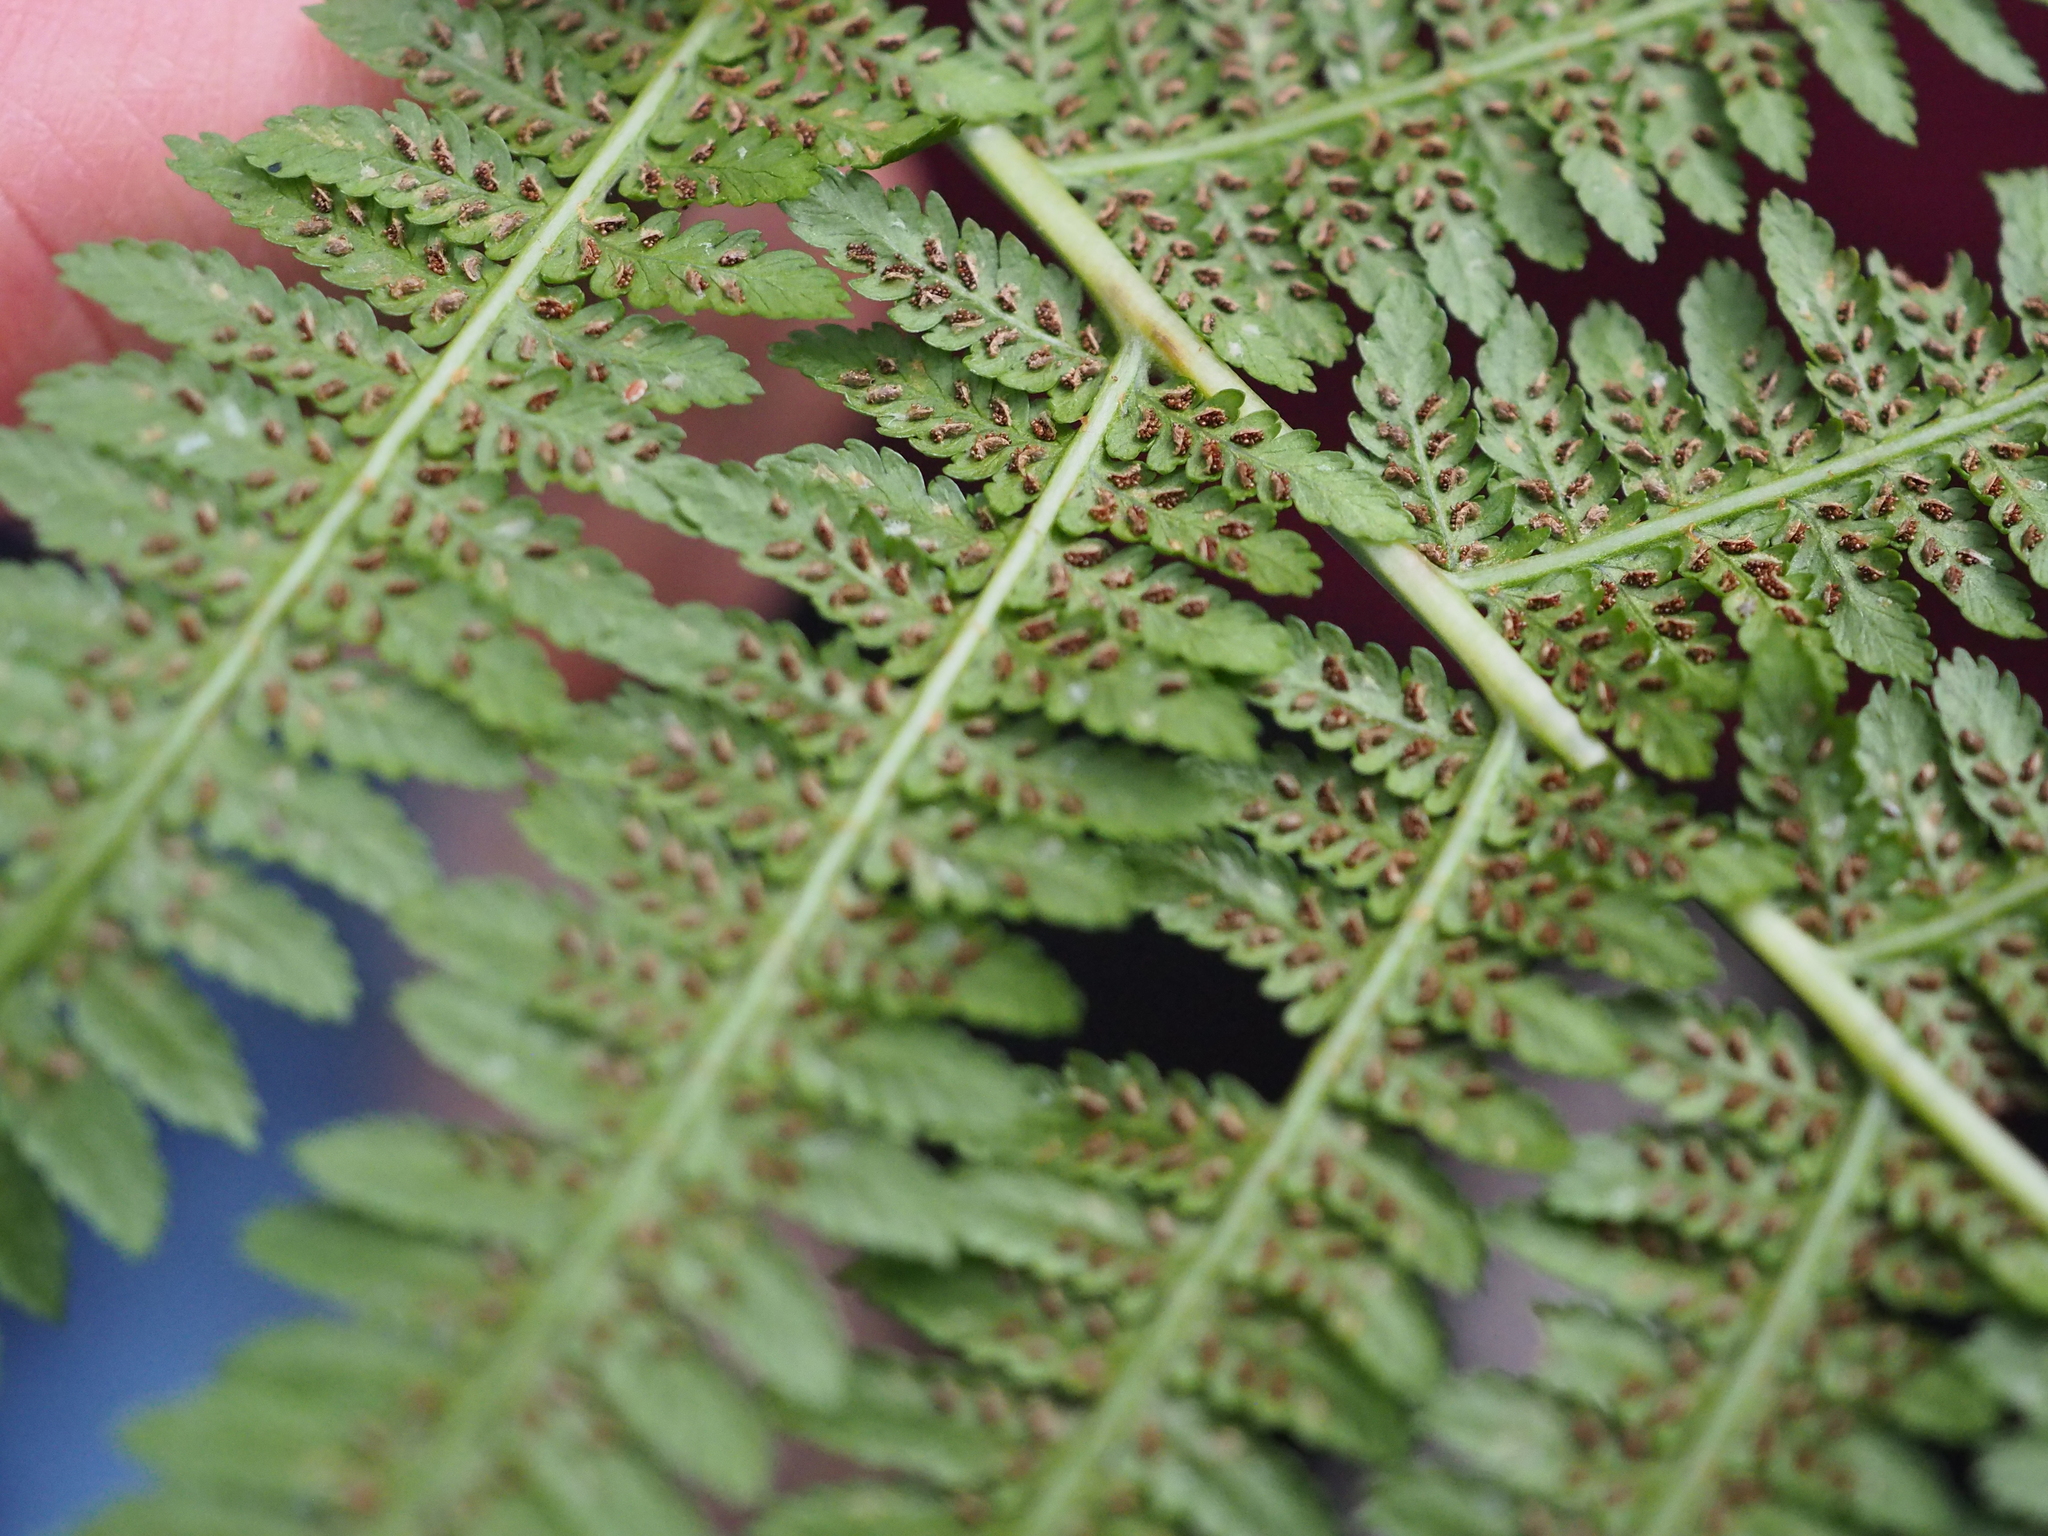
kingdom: Plantae
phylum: Tracheophyta
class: Polypodiopsida
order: Polypodiales
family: Athyriaceae
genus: Athyrium
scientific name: Athyrium filix-femina
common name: Lady fern
